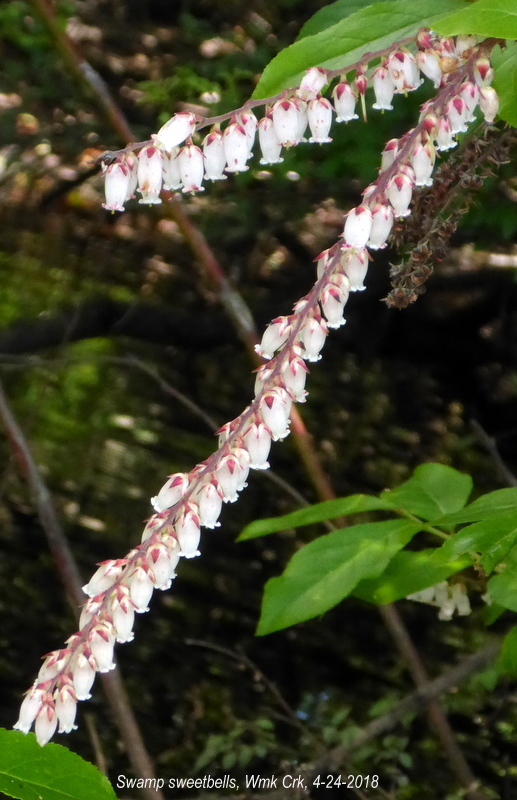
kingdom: Plantae
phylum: Tracheophyta
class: Magnoliopsida
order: Ericales
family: Ericaceae
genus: Eubotrys
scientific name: Eubotrys racemosa
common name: Fetterbush
